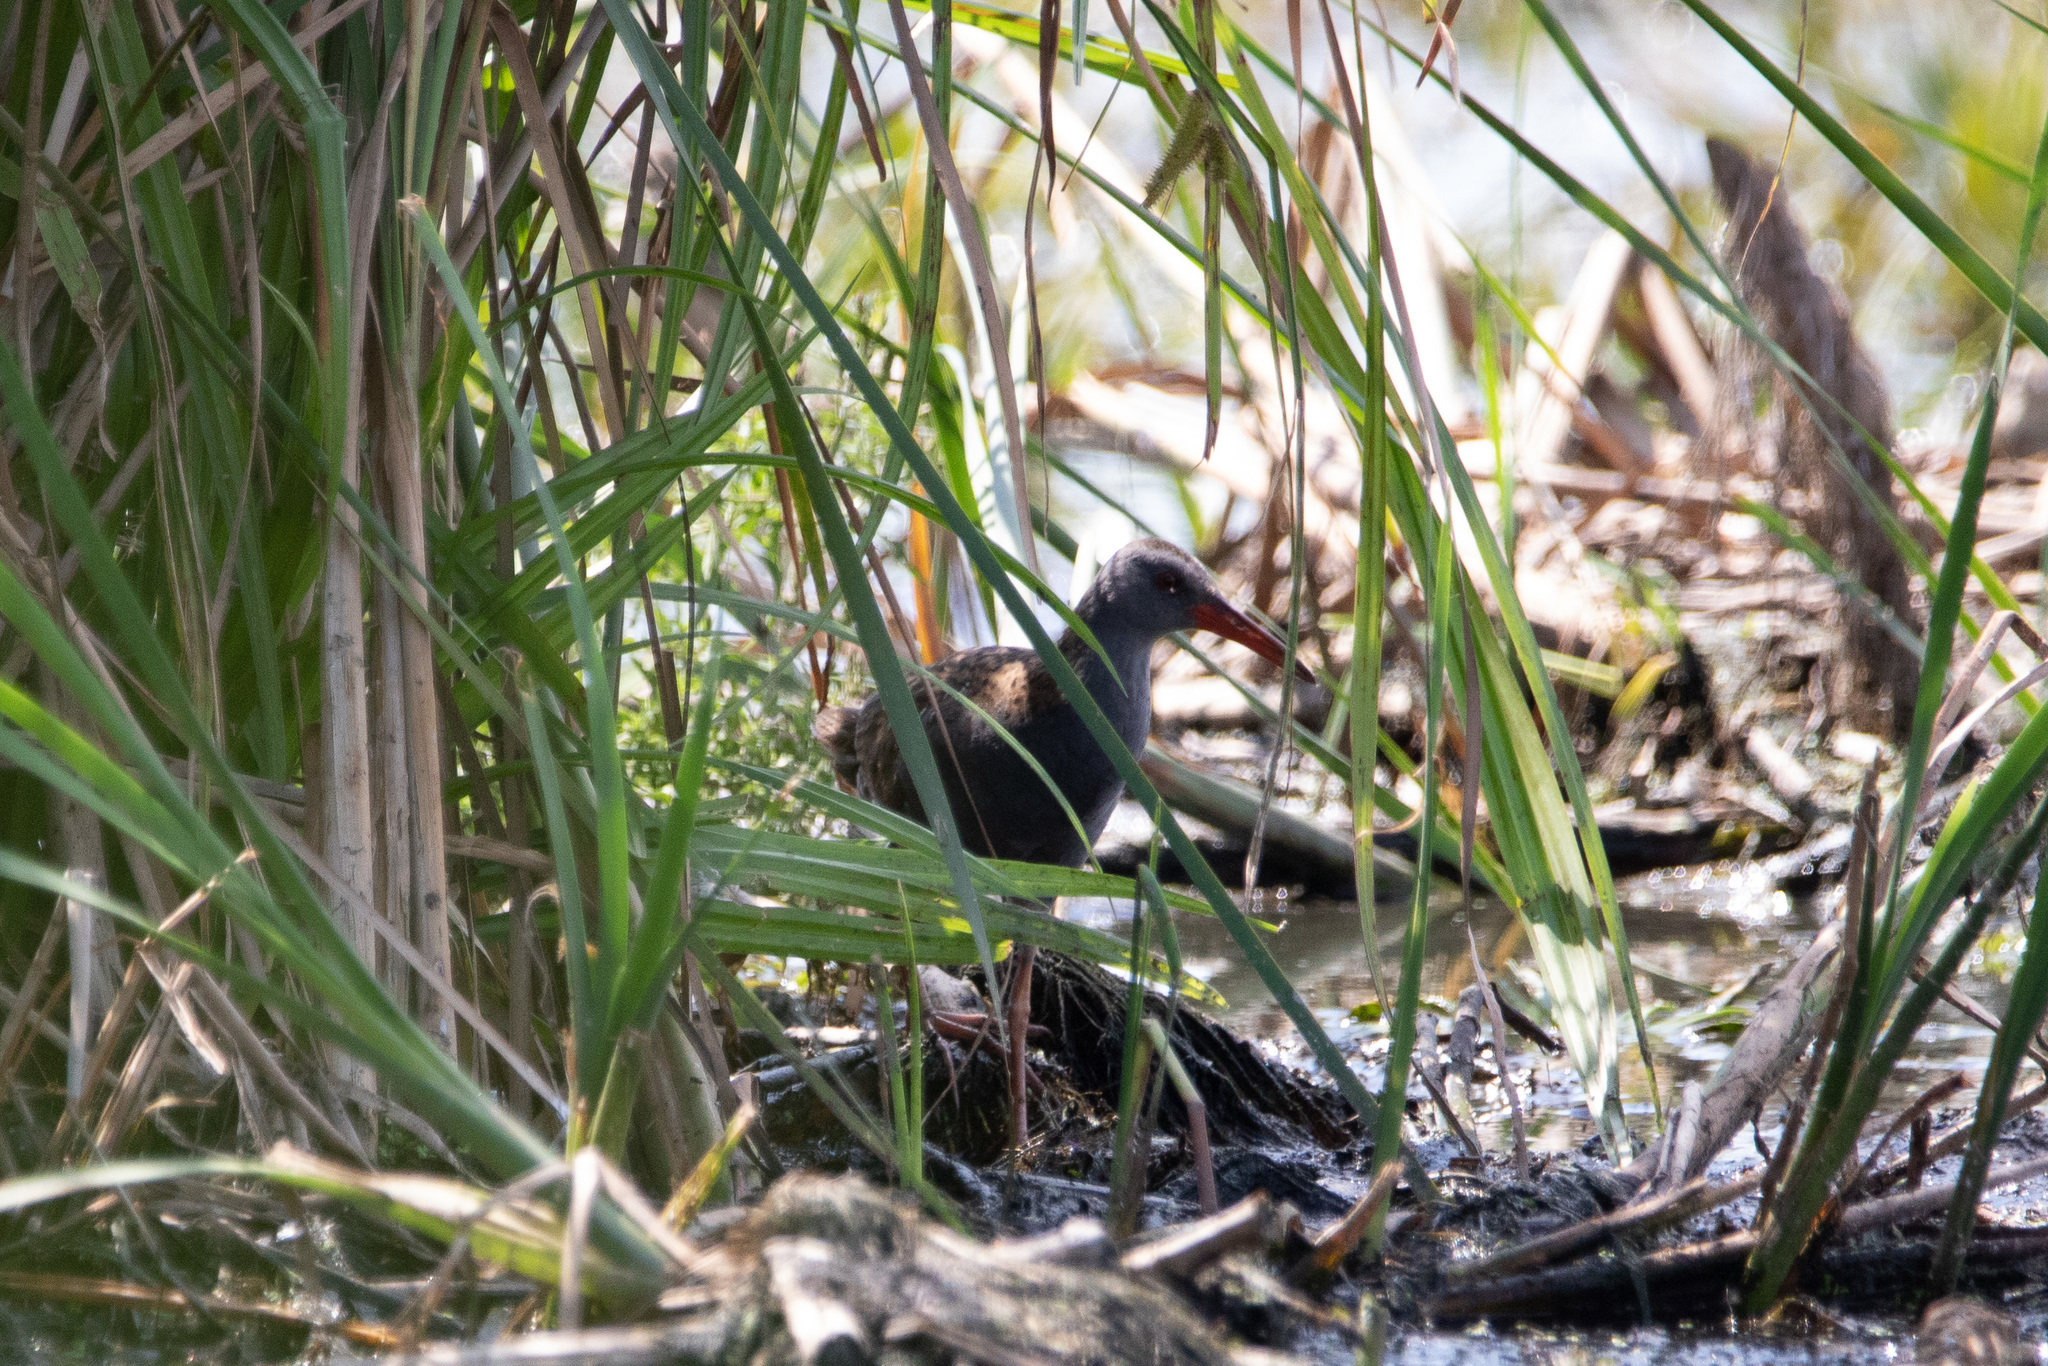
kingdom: Animalia
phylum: Chordata
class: Aves
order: Gruiformes
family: Rallidae
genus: Rallus
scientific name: Rallus aquaticus
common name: Water rail
